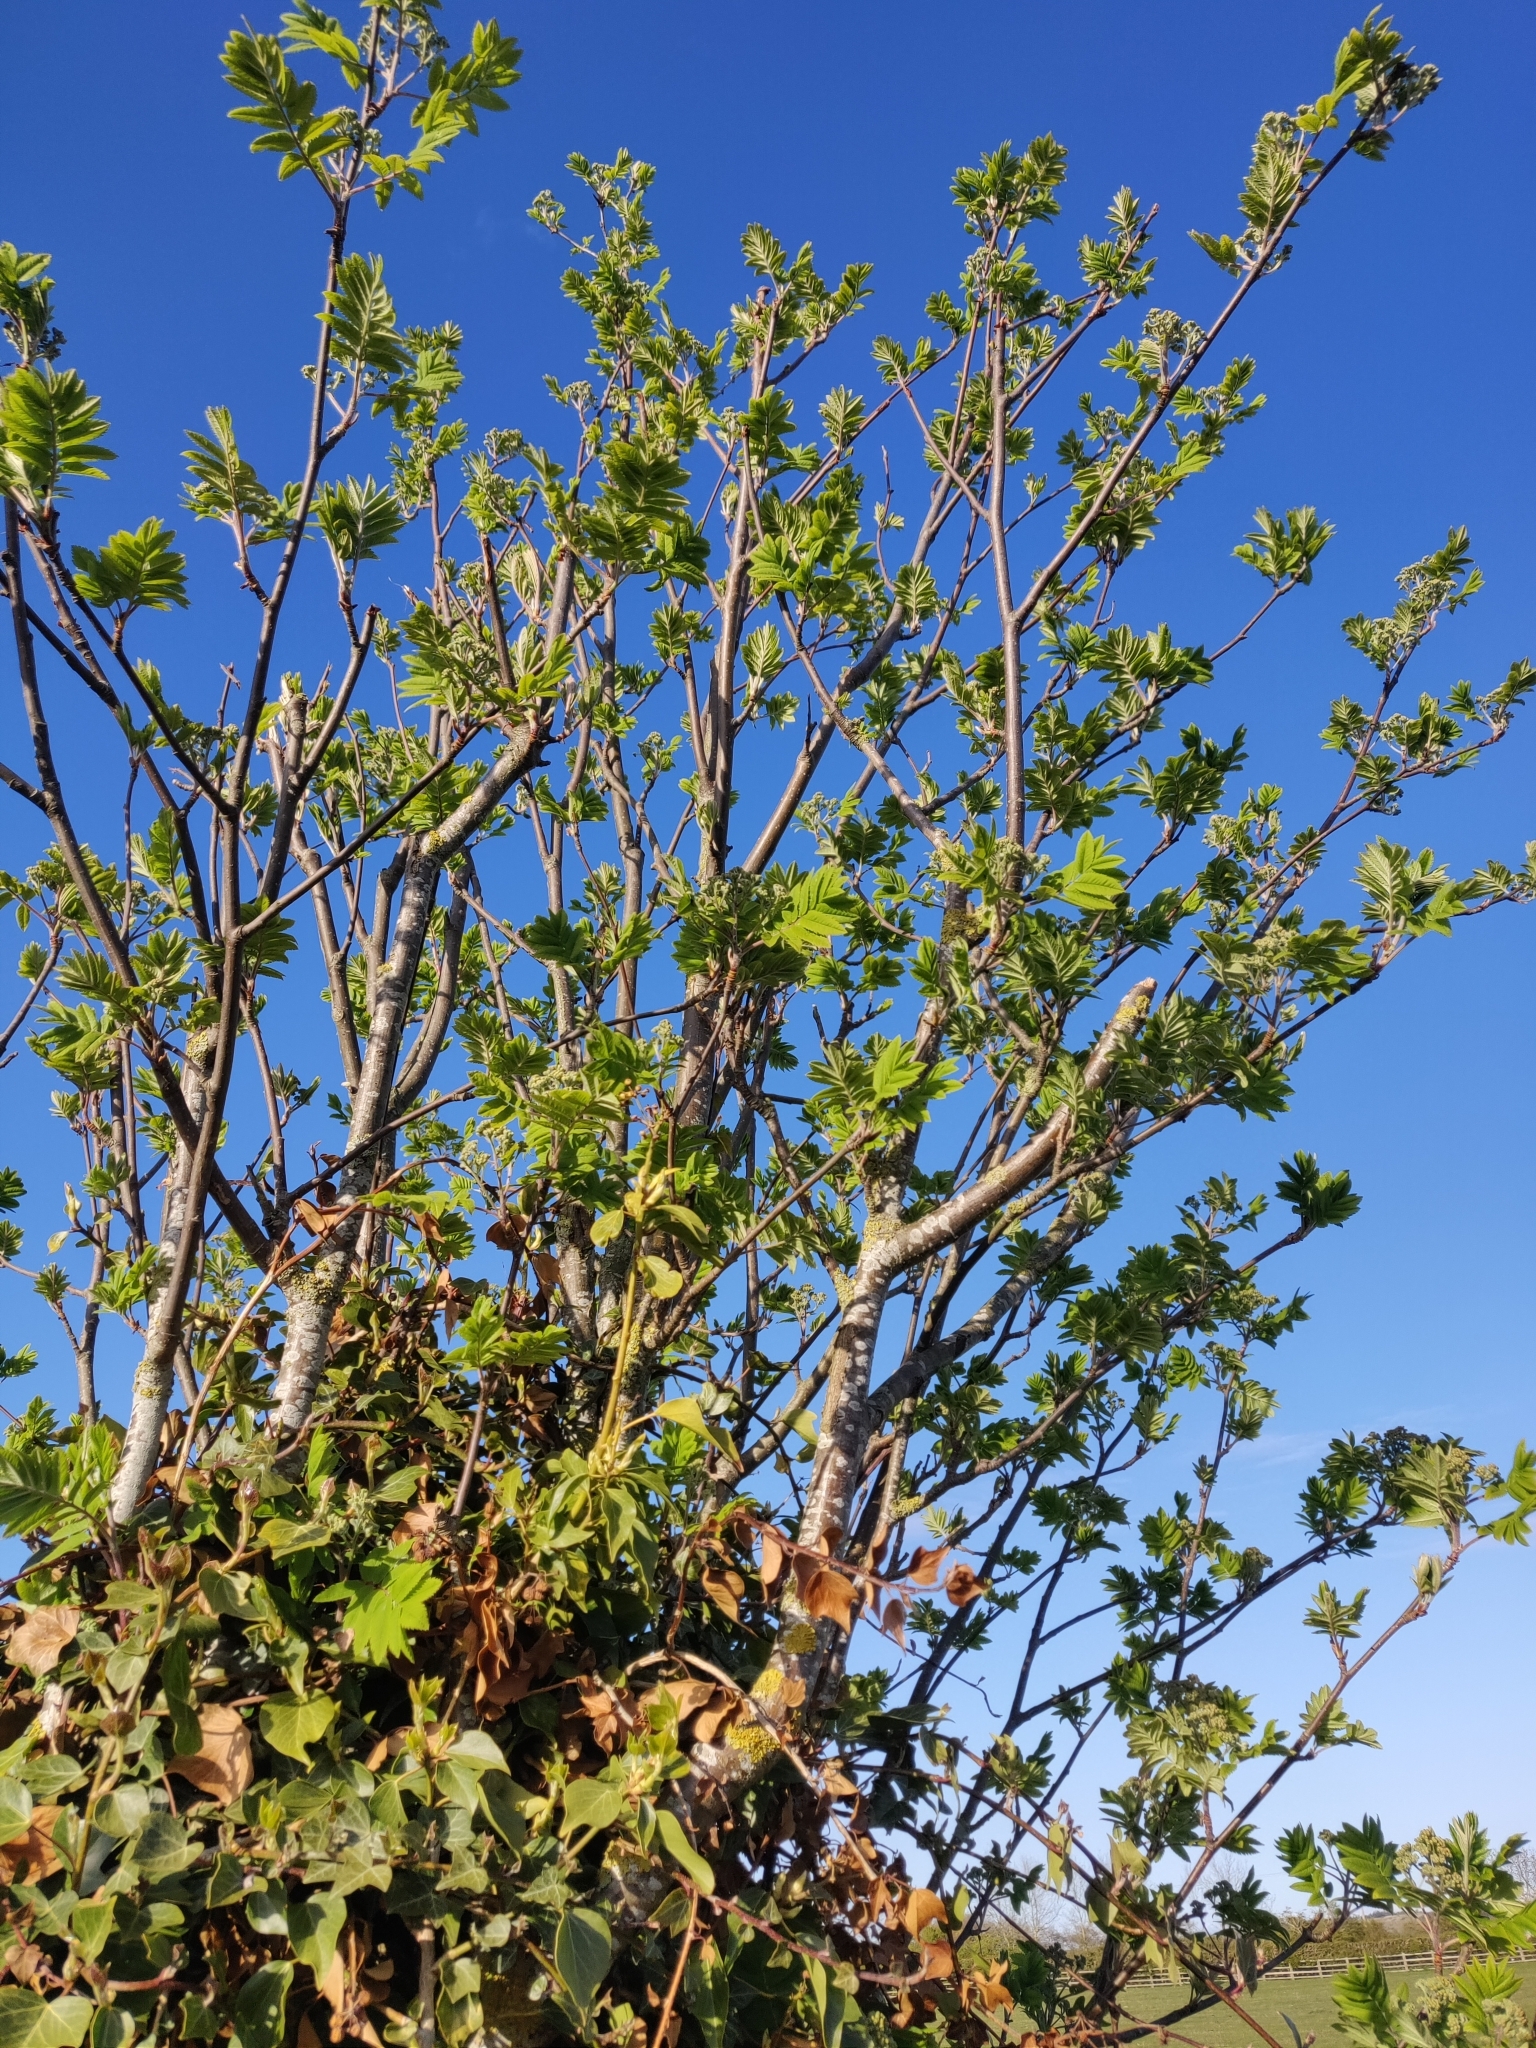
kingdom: Plantae
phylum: Tracheophyta
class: Magnoliopsida
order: Rosales
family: Rosaceae
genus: Sorbus
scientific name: Sorbus aucuparia
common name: Rowan
